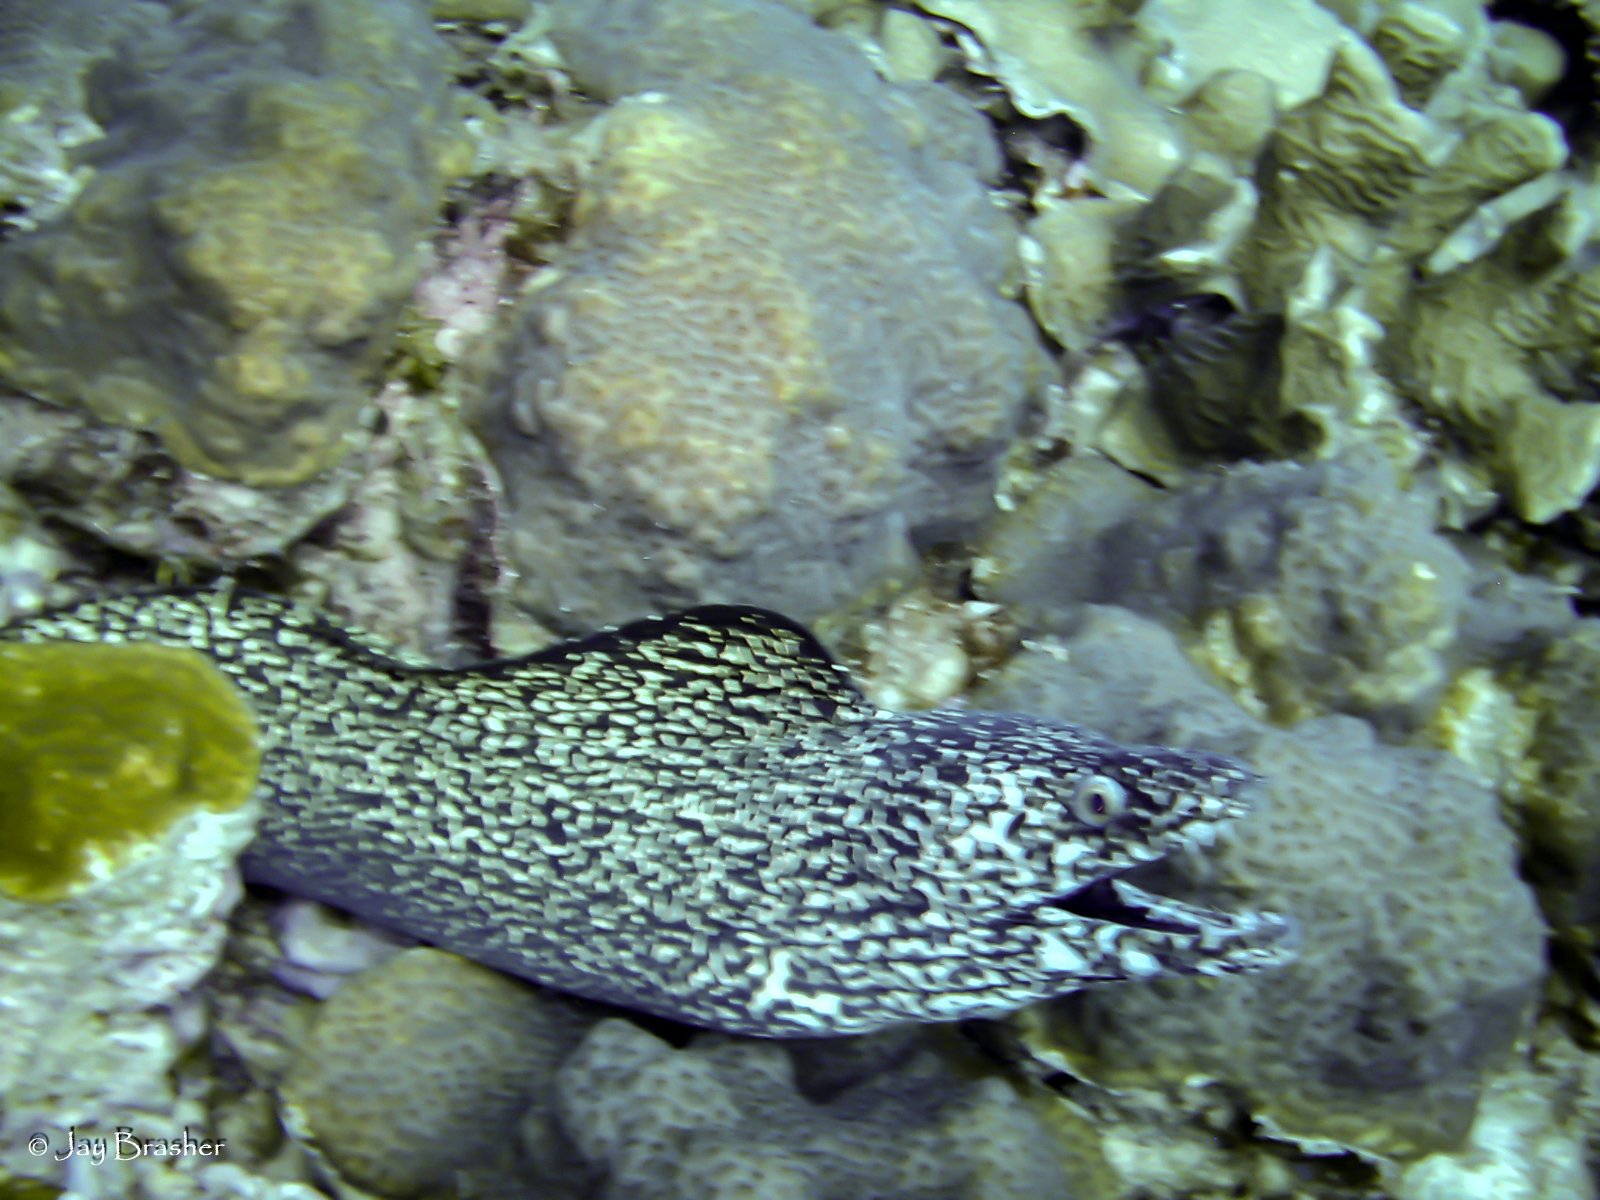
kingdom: Animalia
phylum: Chordata
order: Anguilliformes
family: Muraenidae
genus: Gymnothorax
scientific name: Gymnothorax moringa
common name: Spotted moray
